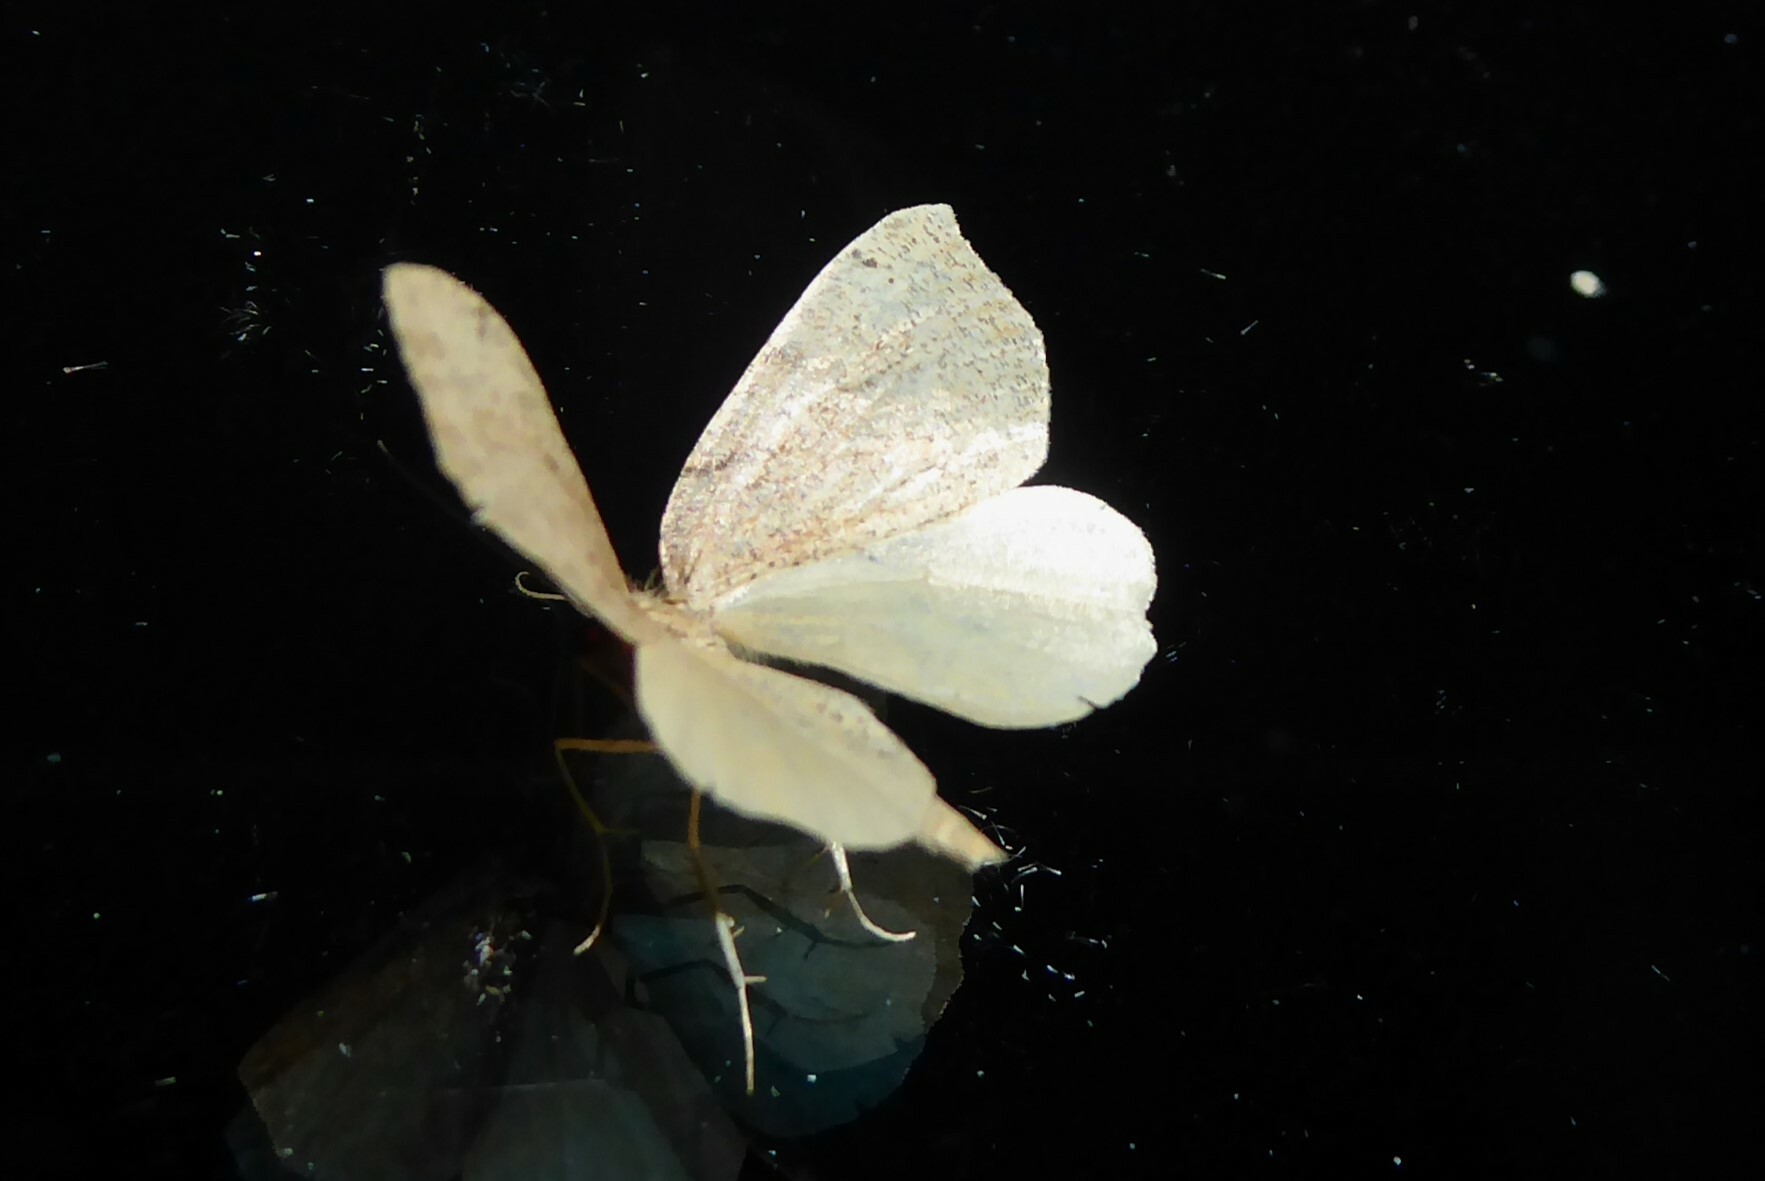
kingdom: Animalia
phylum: Arthropoda
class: Insecta
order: Lepidoptera
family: Geometridae
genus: Sestra
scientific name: Sestra humeraria
